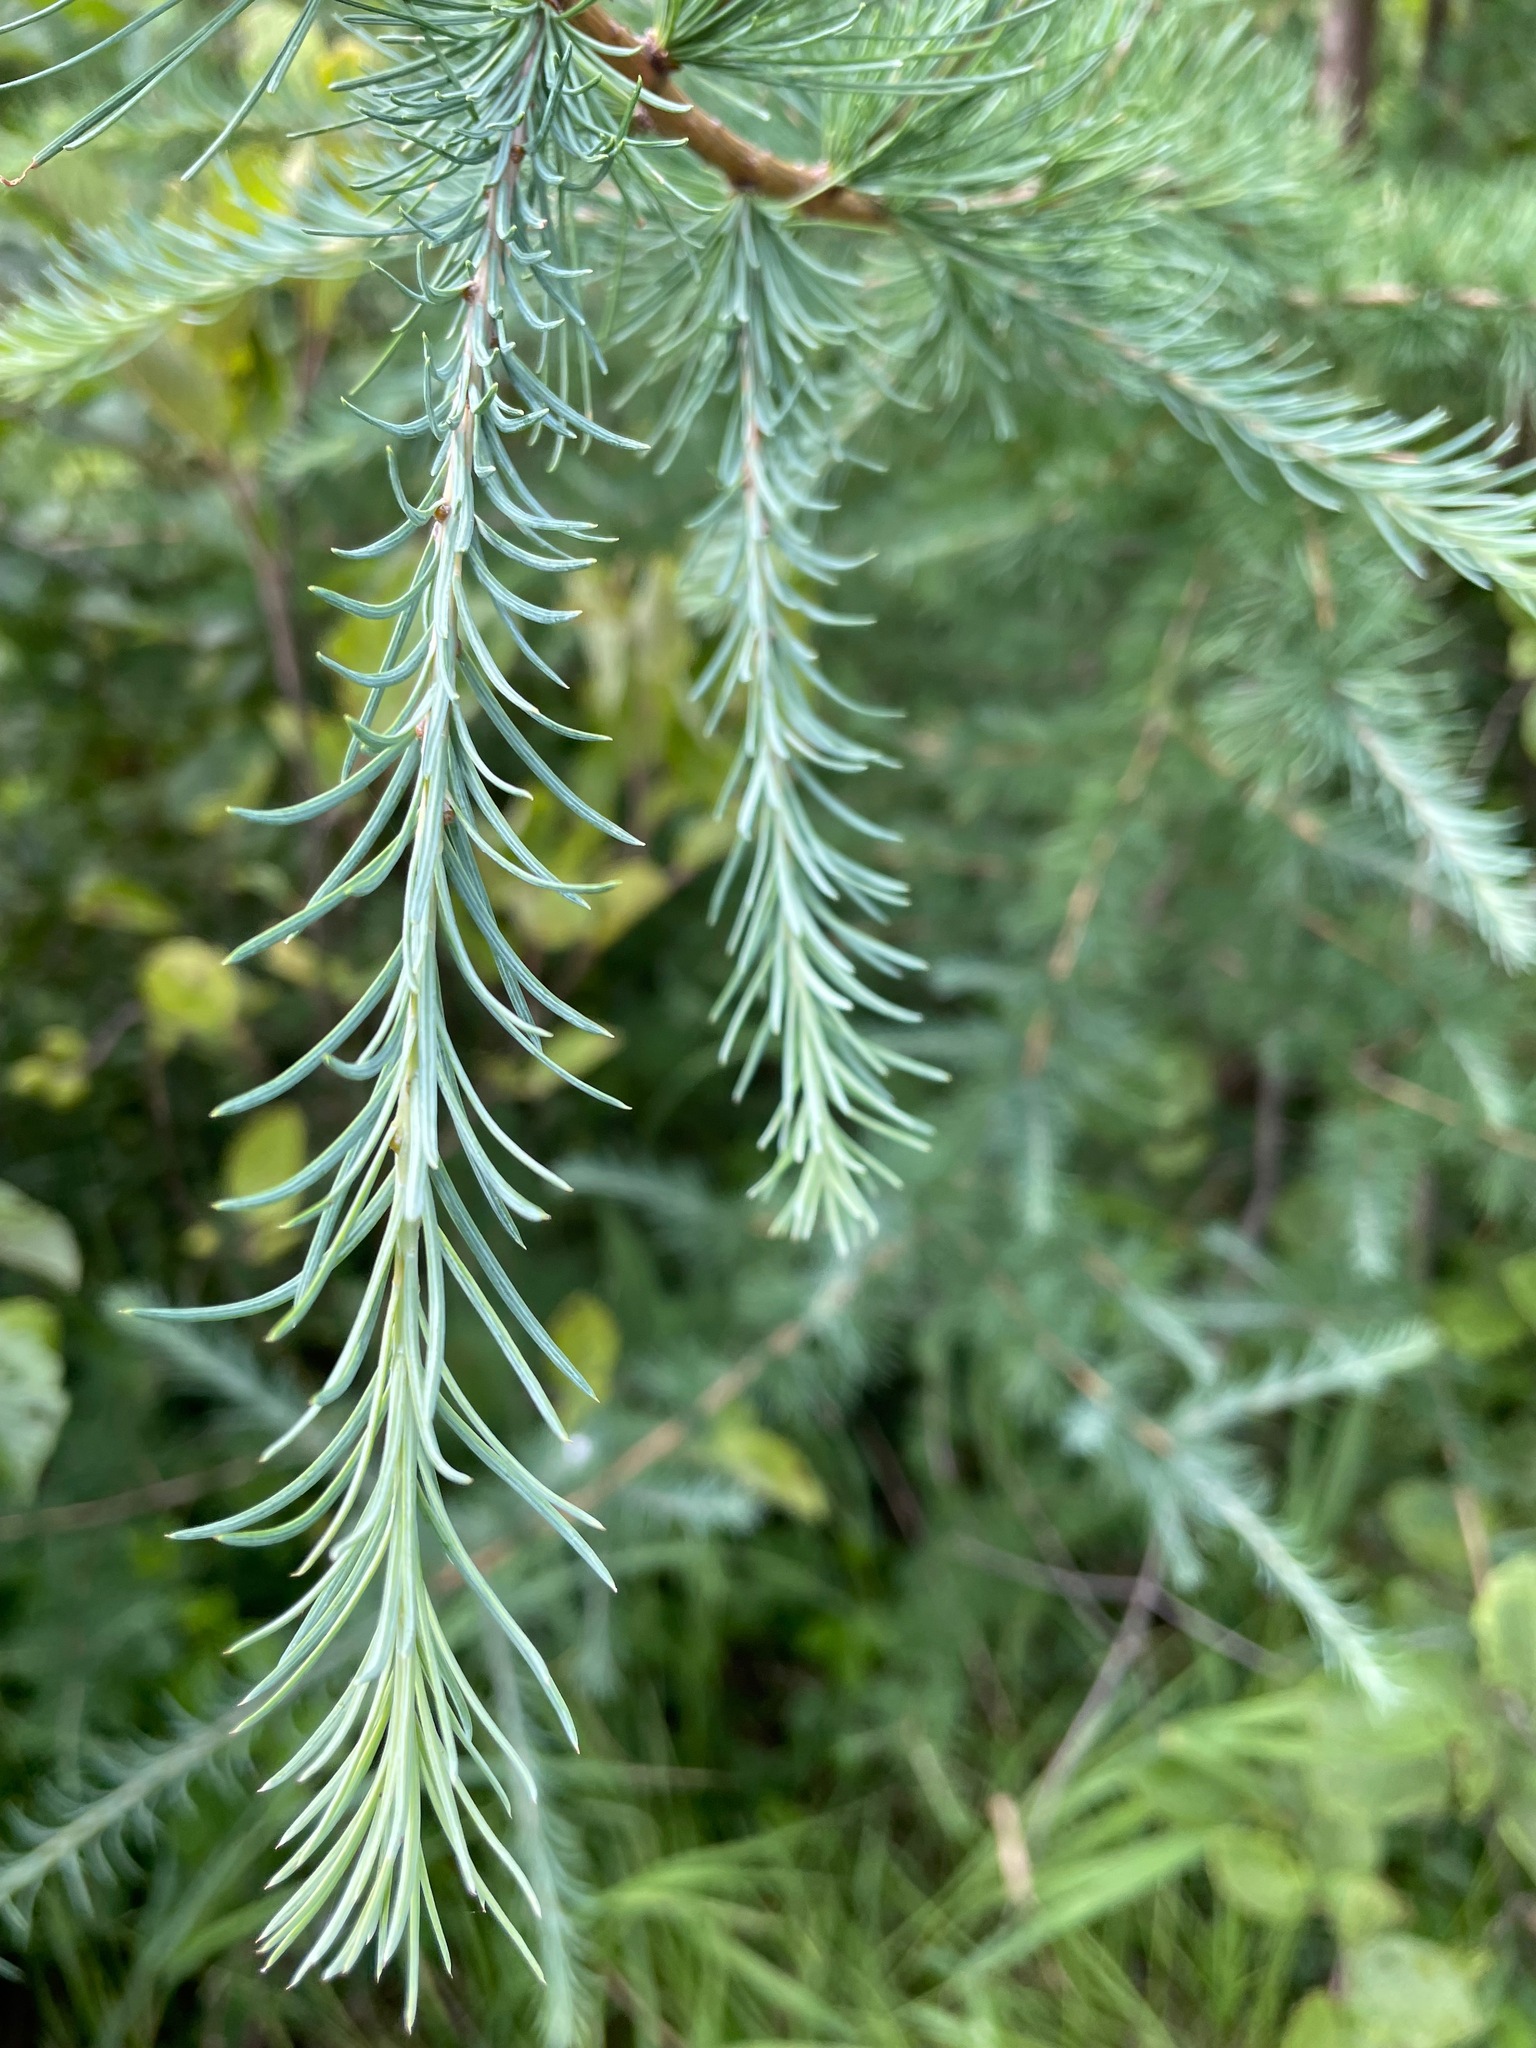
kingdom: Plantae
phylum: Tracheophyta
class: Pinopsida
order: Pinales
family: Pinaceae
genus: Larix
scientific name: Larix laricina
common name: American larch
